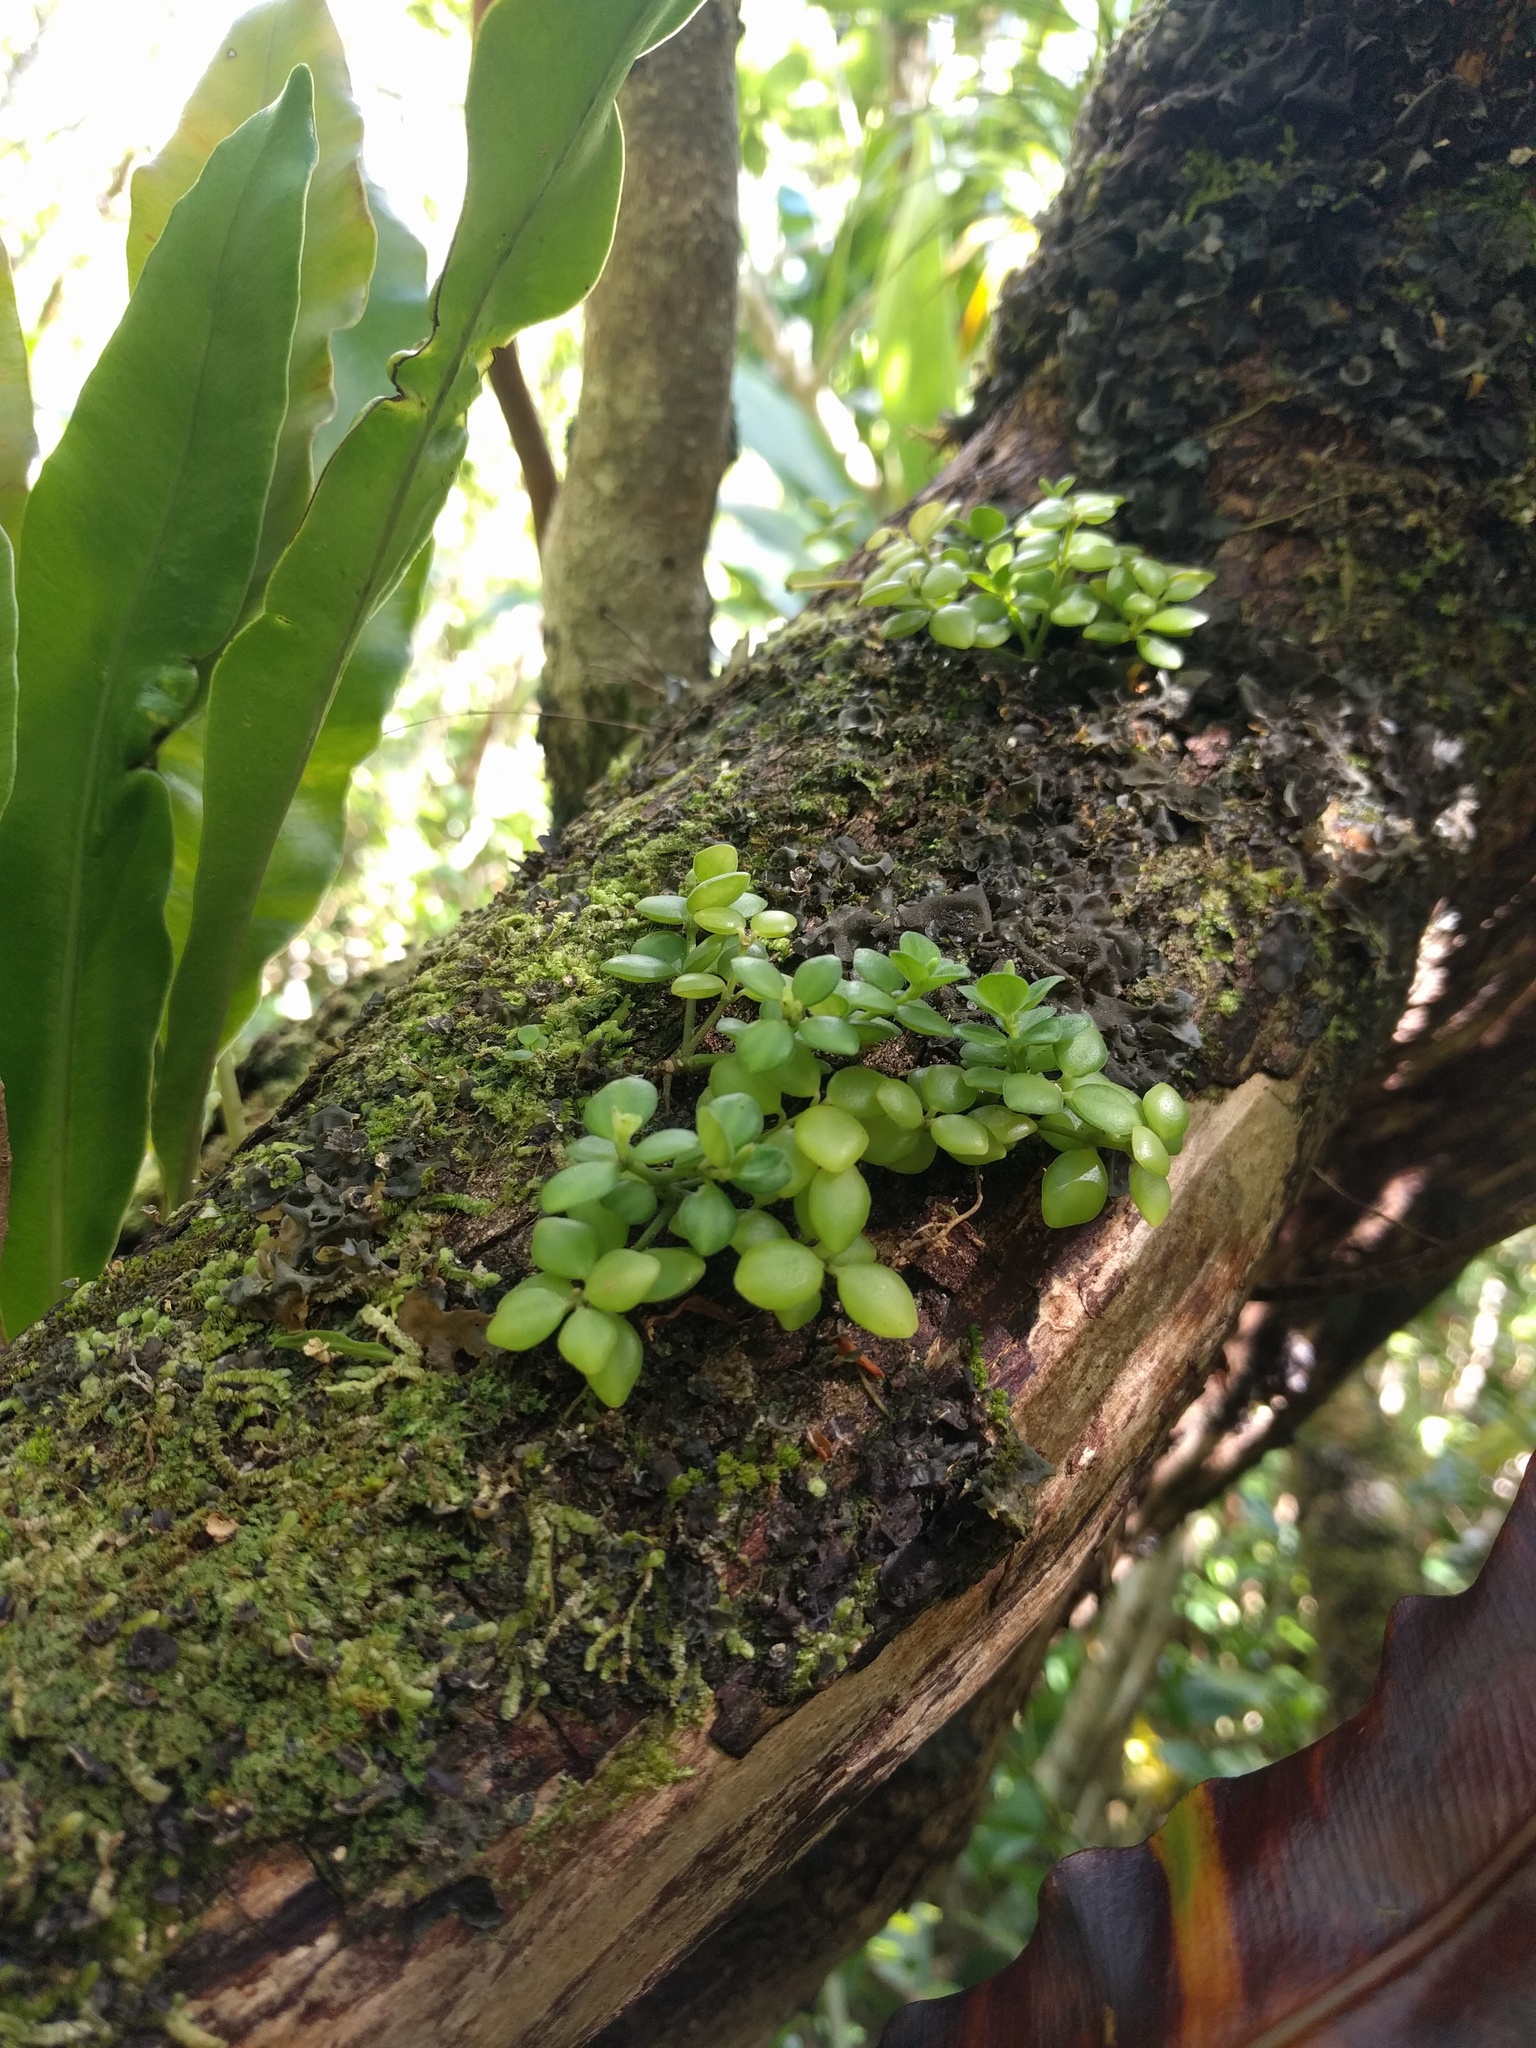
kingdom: Plantae
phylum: Tracheophyta
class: Magnoliopsida
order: Piperales
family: Piperaceae
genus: Peperomia
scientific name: Peperomia tetraphylla
